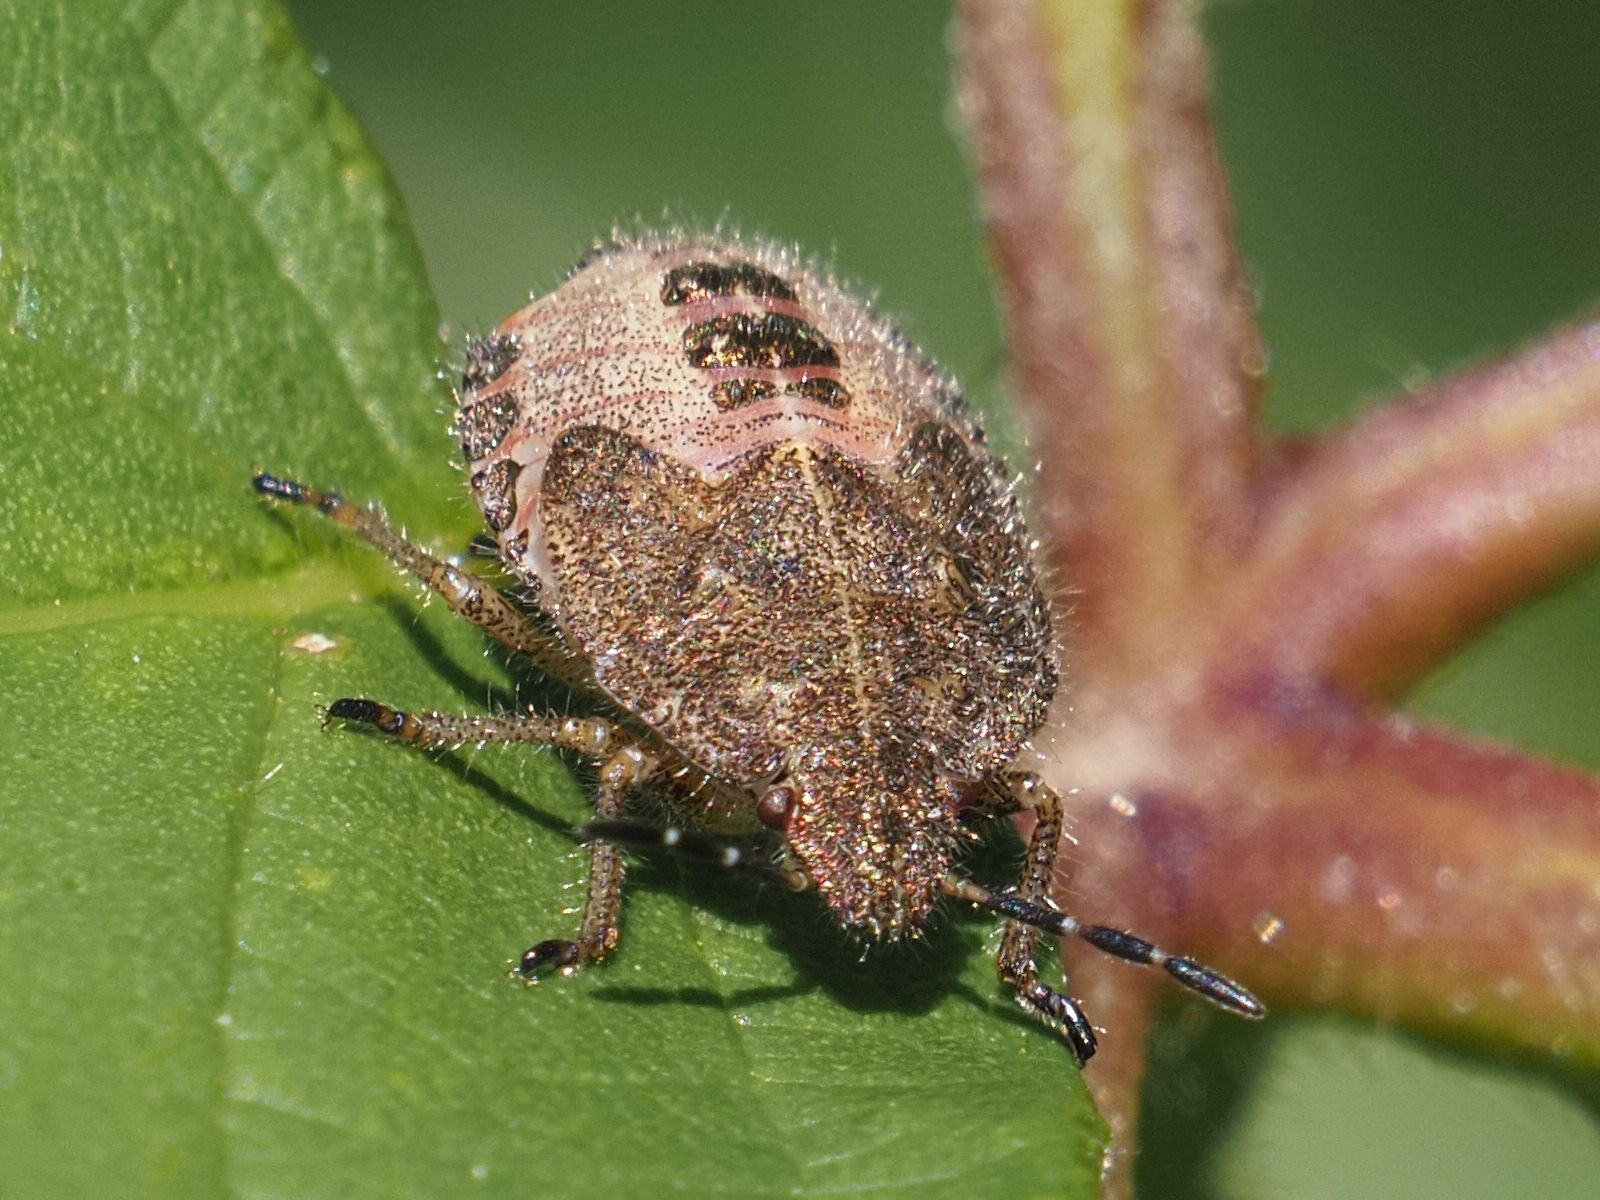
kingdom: Animalia
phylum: Arthropoda
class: Insecta
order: Hemiptera
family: Pentatomidae
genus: Dolycoris
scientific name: Dolycoris baccarum
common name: Sloe bug
